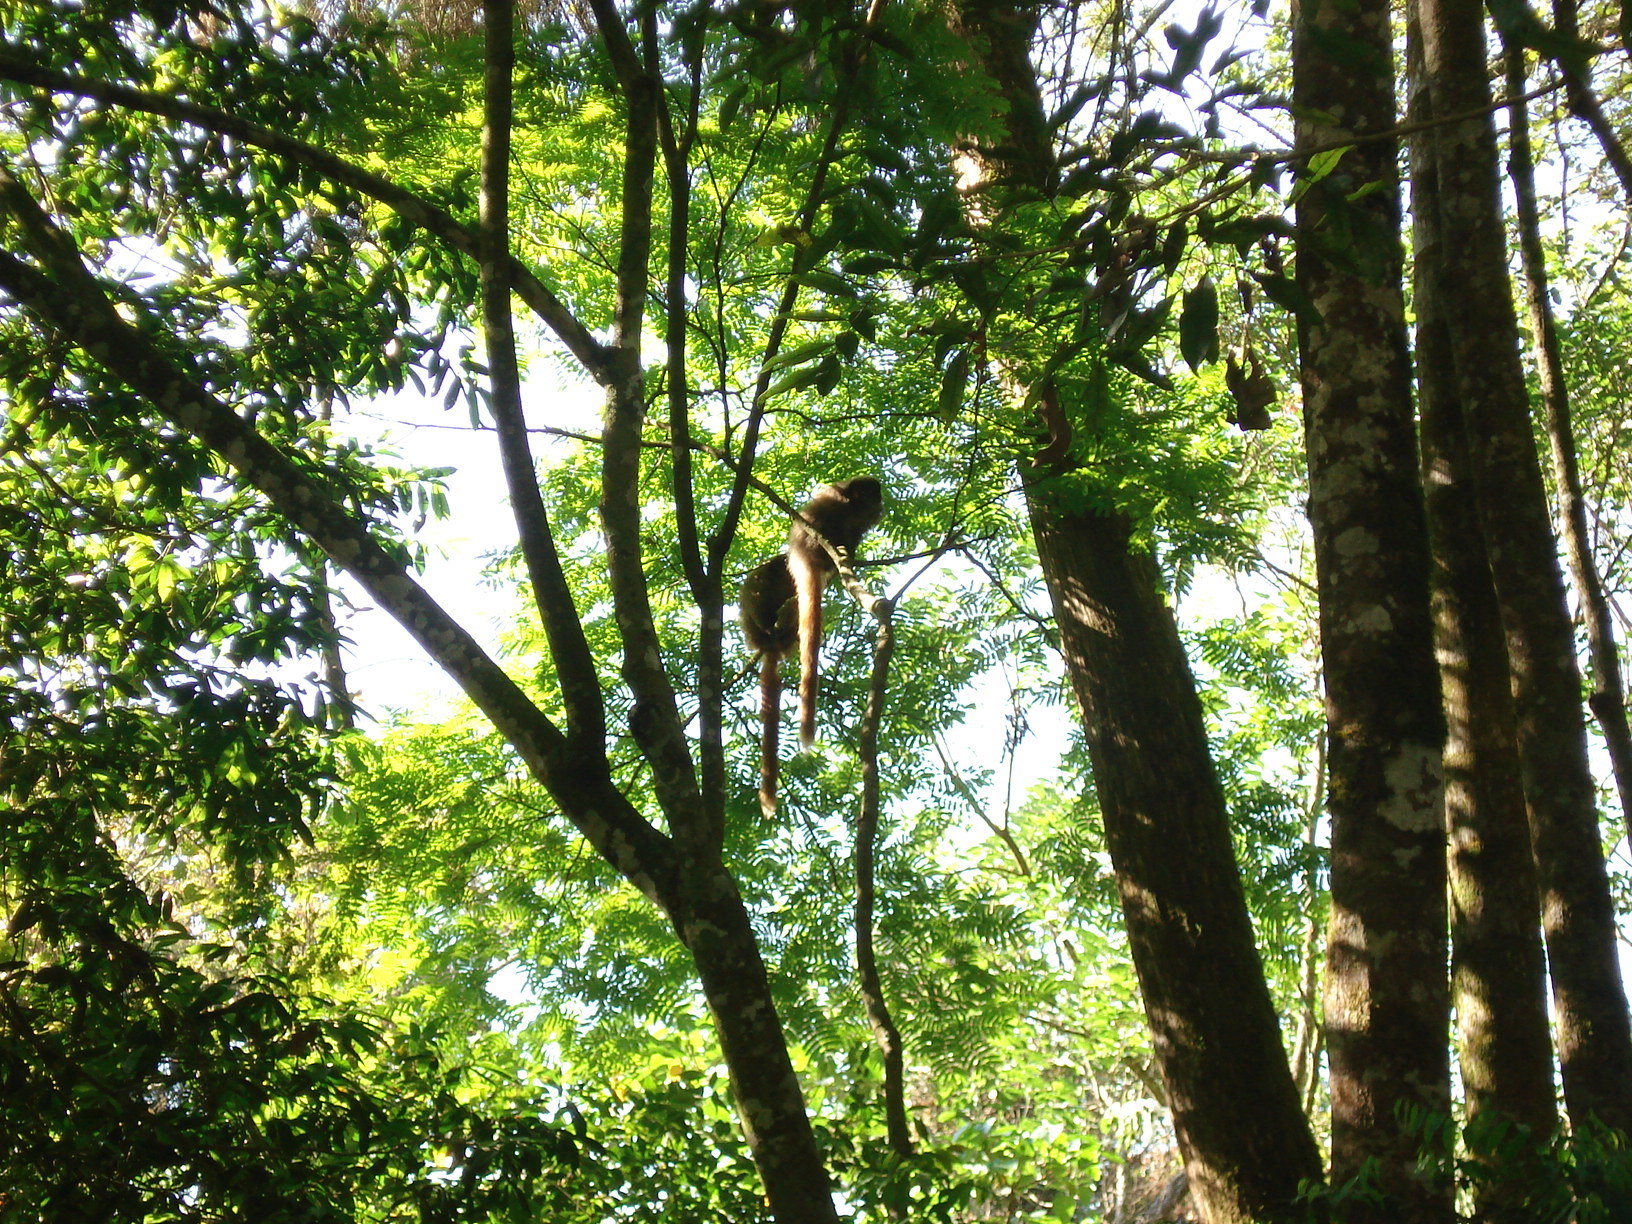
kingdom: Animalia
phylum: Chordata
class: Mammalia
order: Primates
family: Pitheciidae
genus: Callicebus
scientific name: Callicebus nigrifrons
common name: Black-fronted titi
